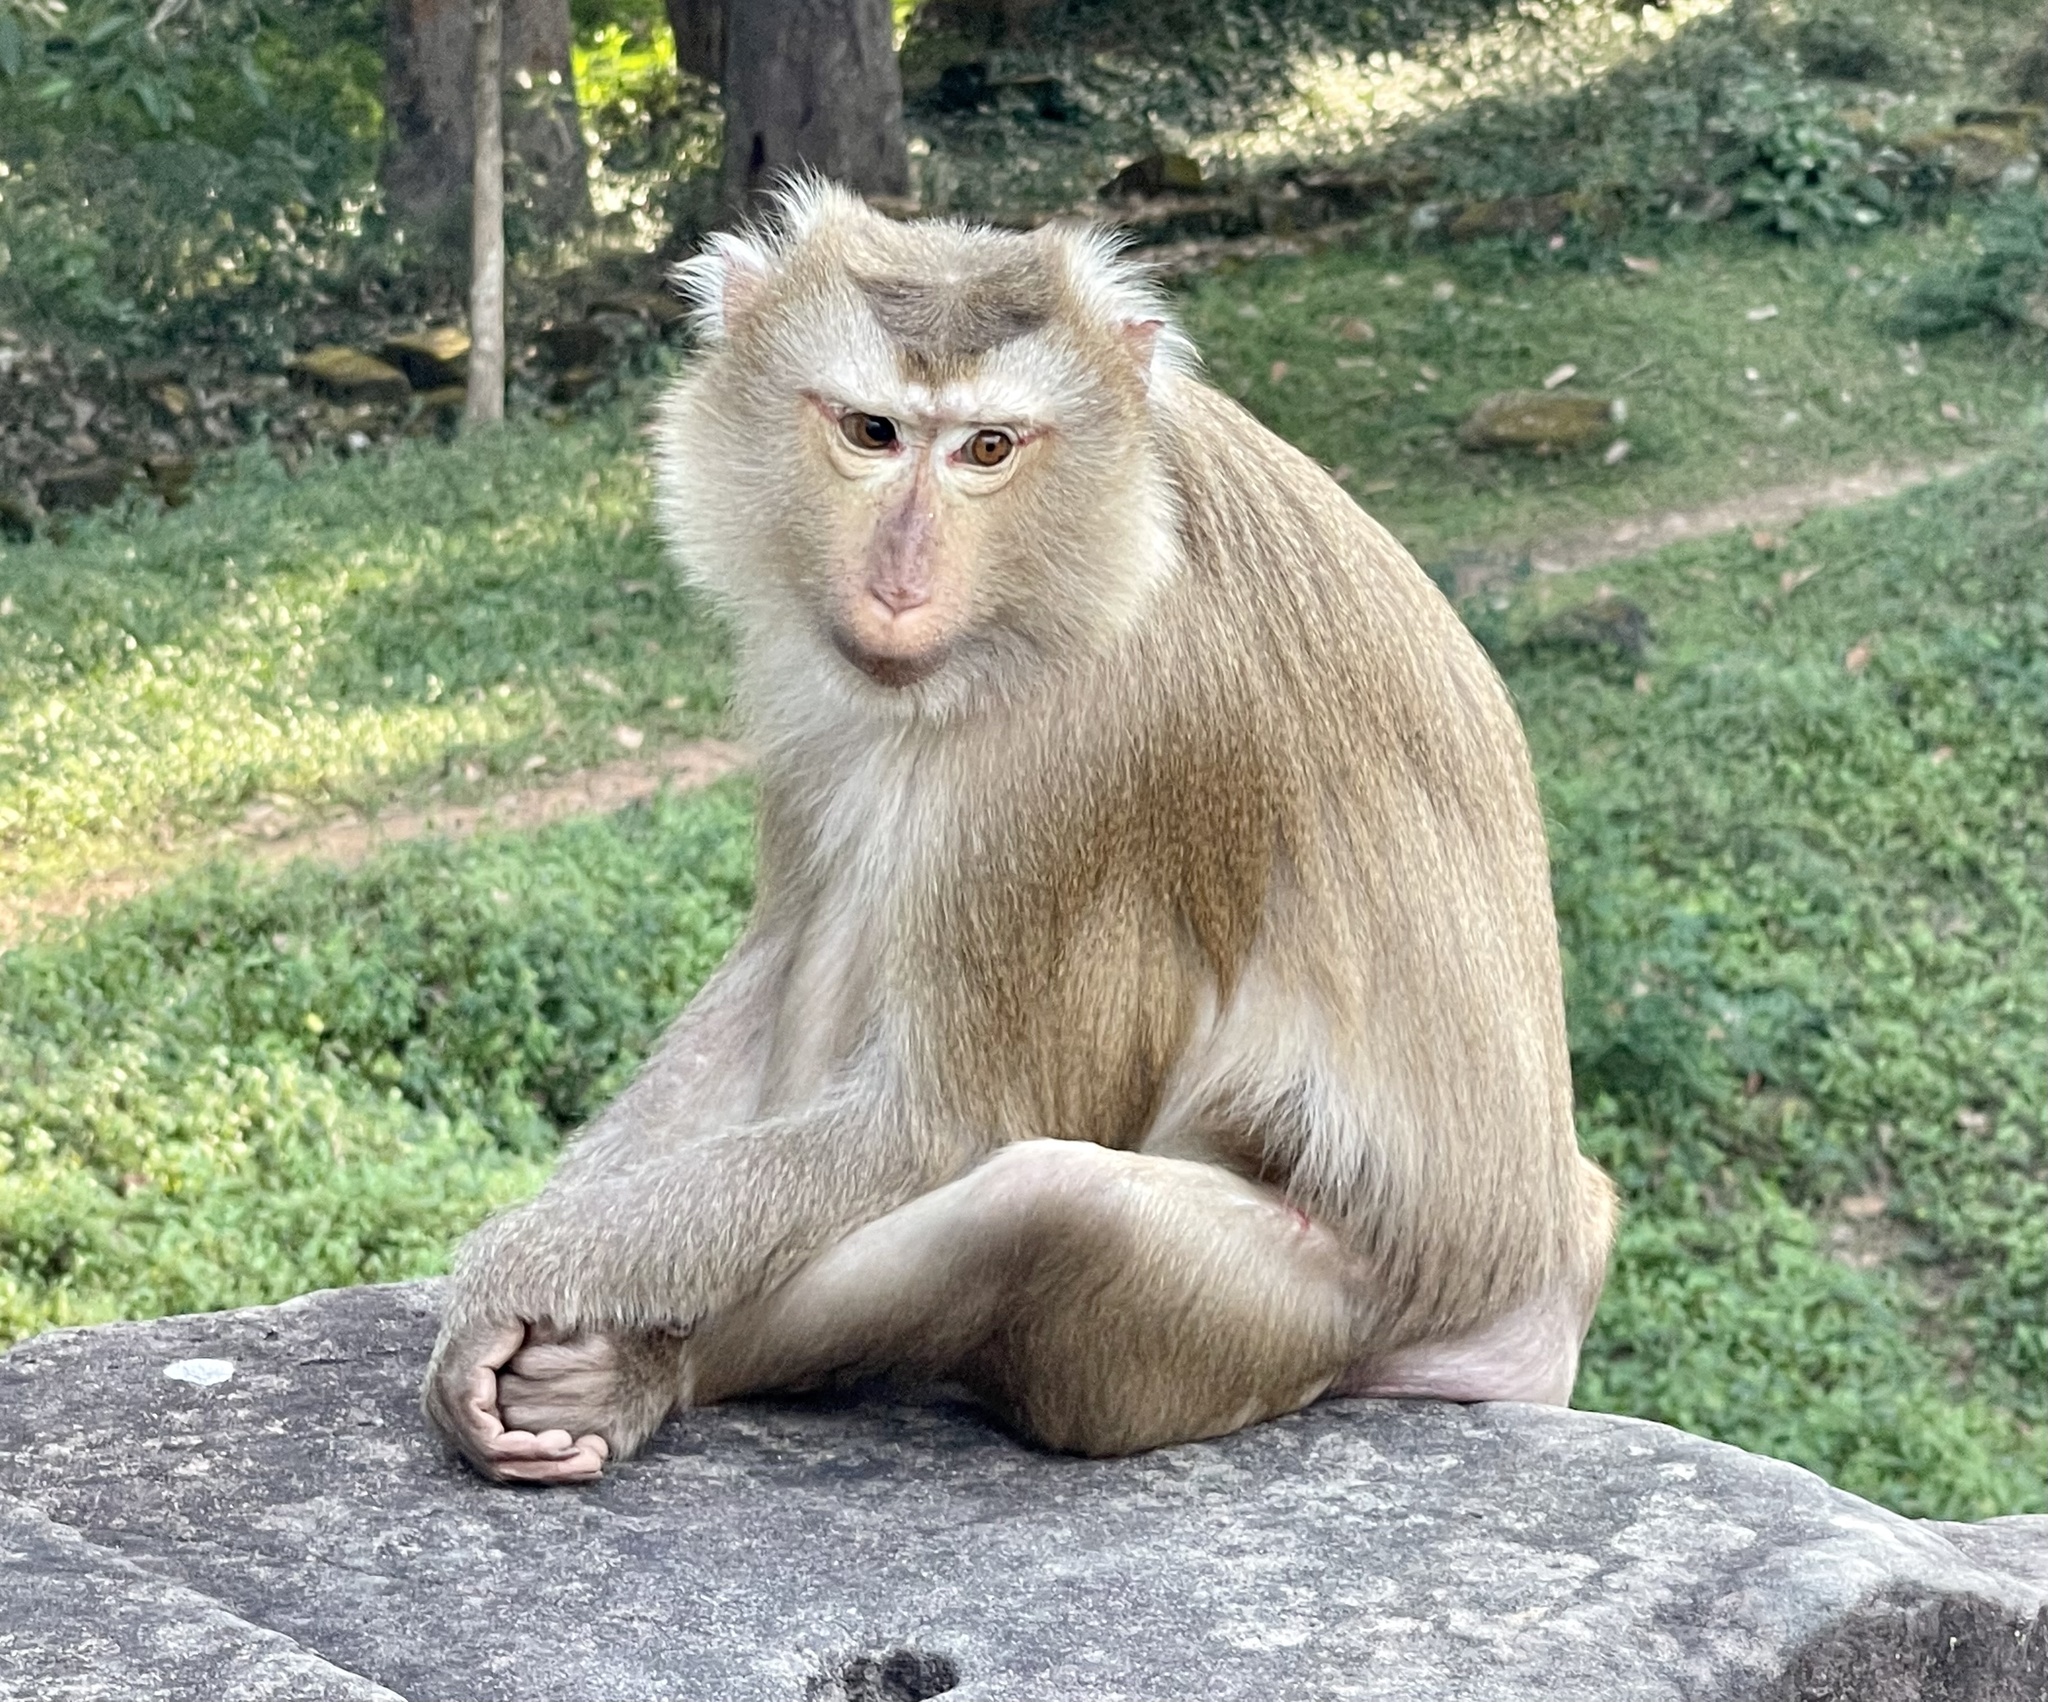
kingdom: Animalia
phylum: Chordata
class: Mammalia
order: Primates
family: Cercopithecidae
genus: Macaca
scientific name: Macaca leonina
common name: Northern pig-tailed macaque
